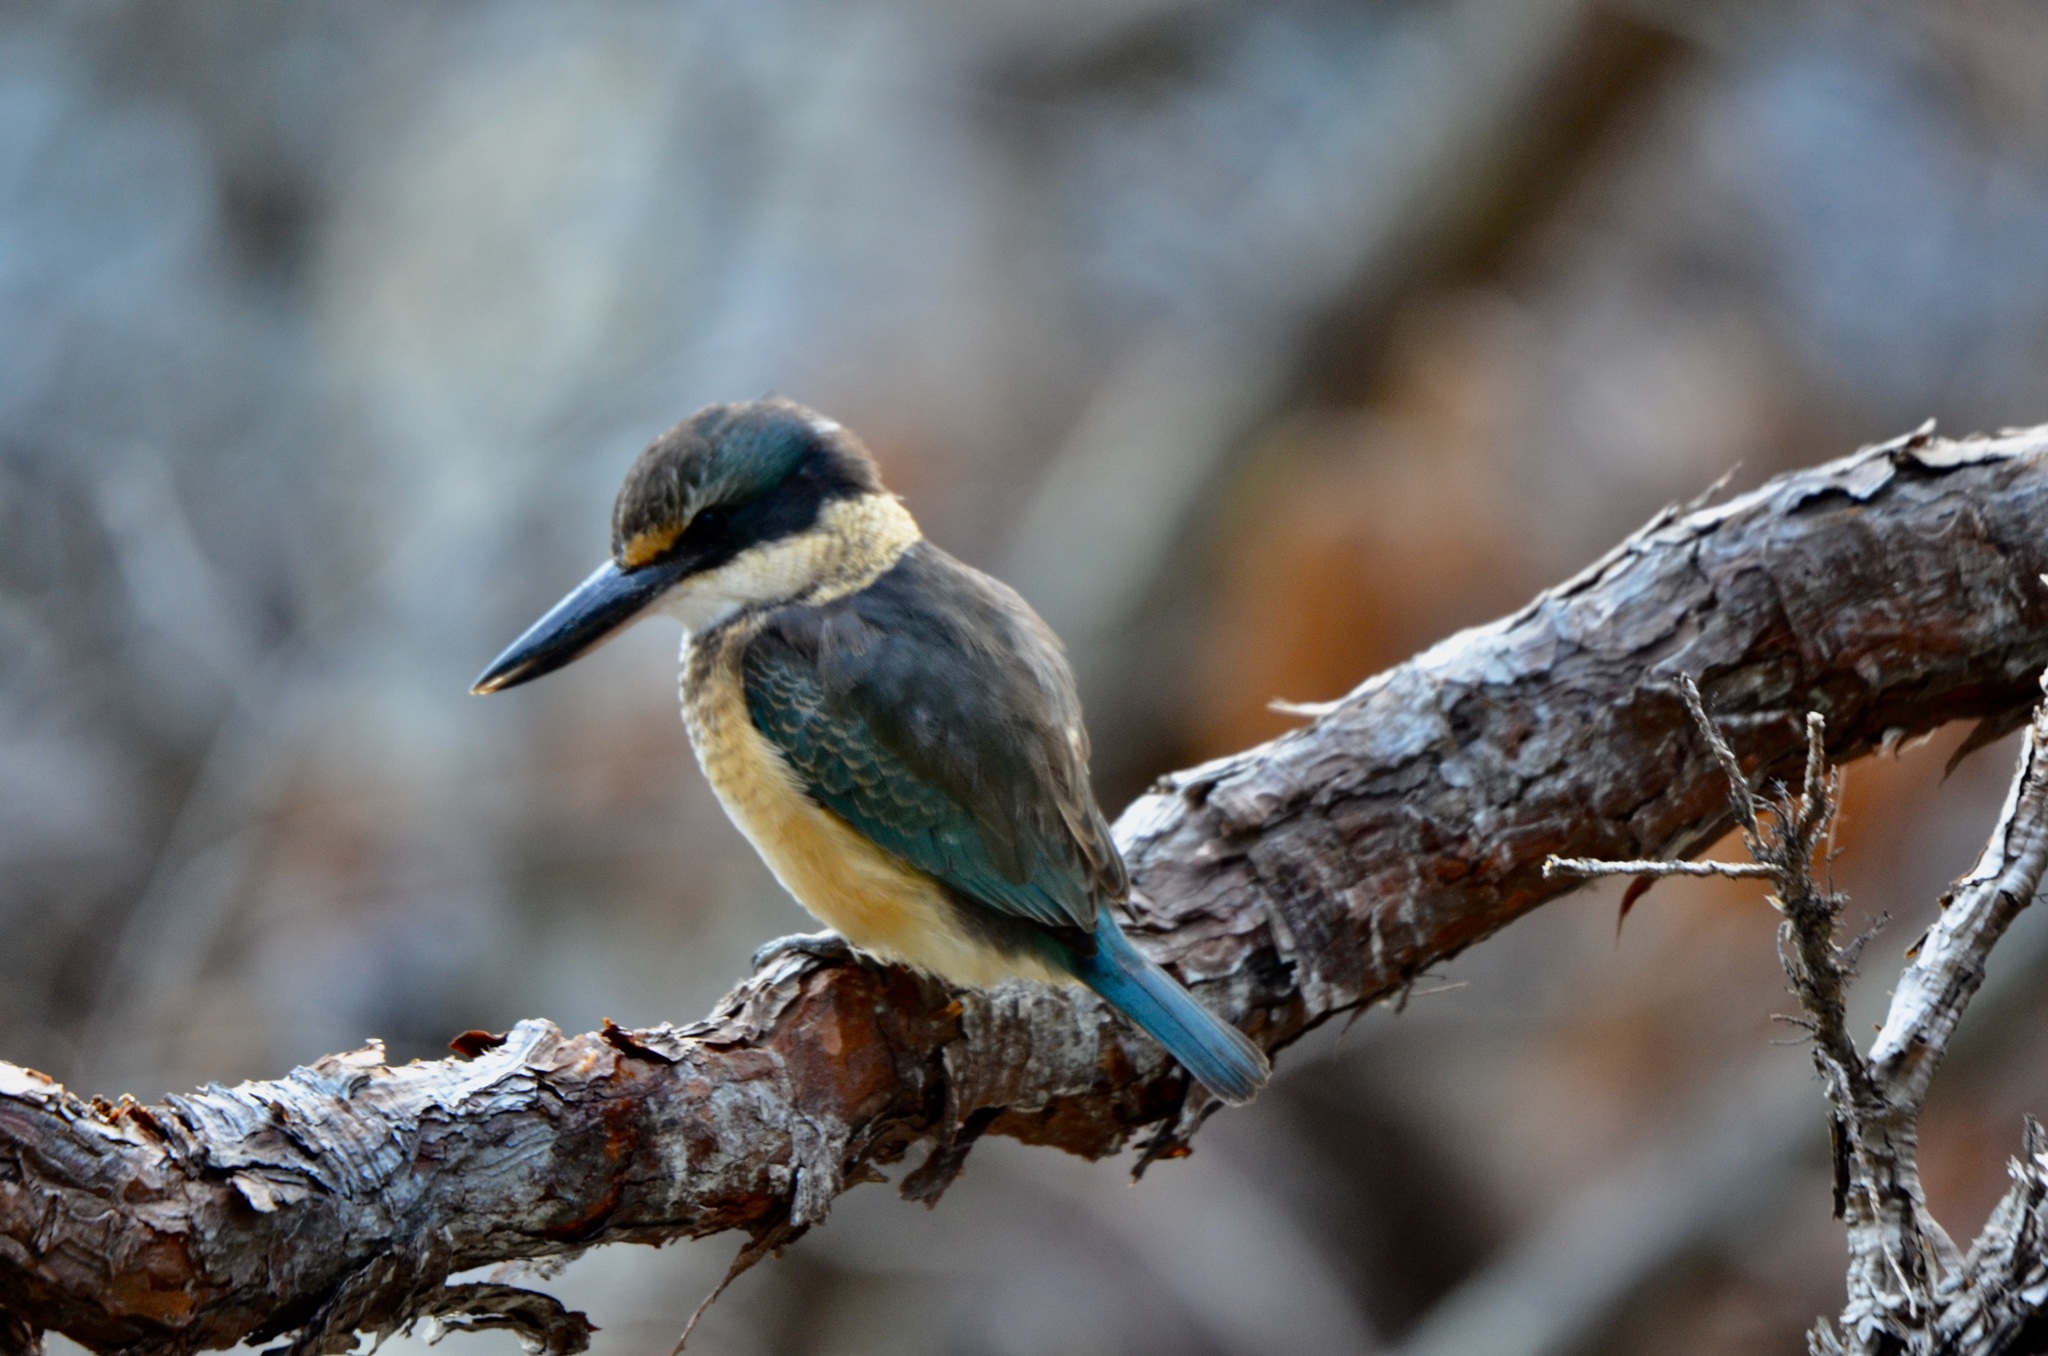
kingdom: Animalia
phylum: Chordata
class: Aves
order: Coraciiformes
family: Alcedinidae
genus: Todiramphus
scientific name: Todiramphus sanctus
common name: Sacred kingfisher
